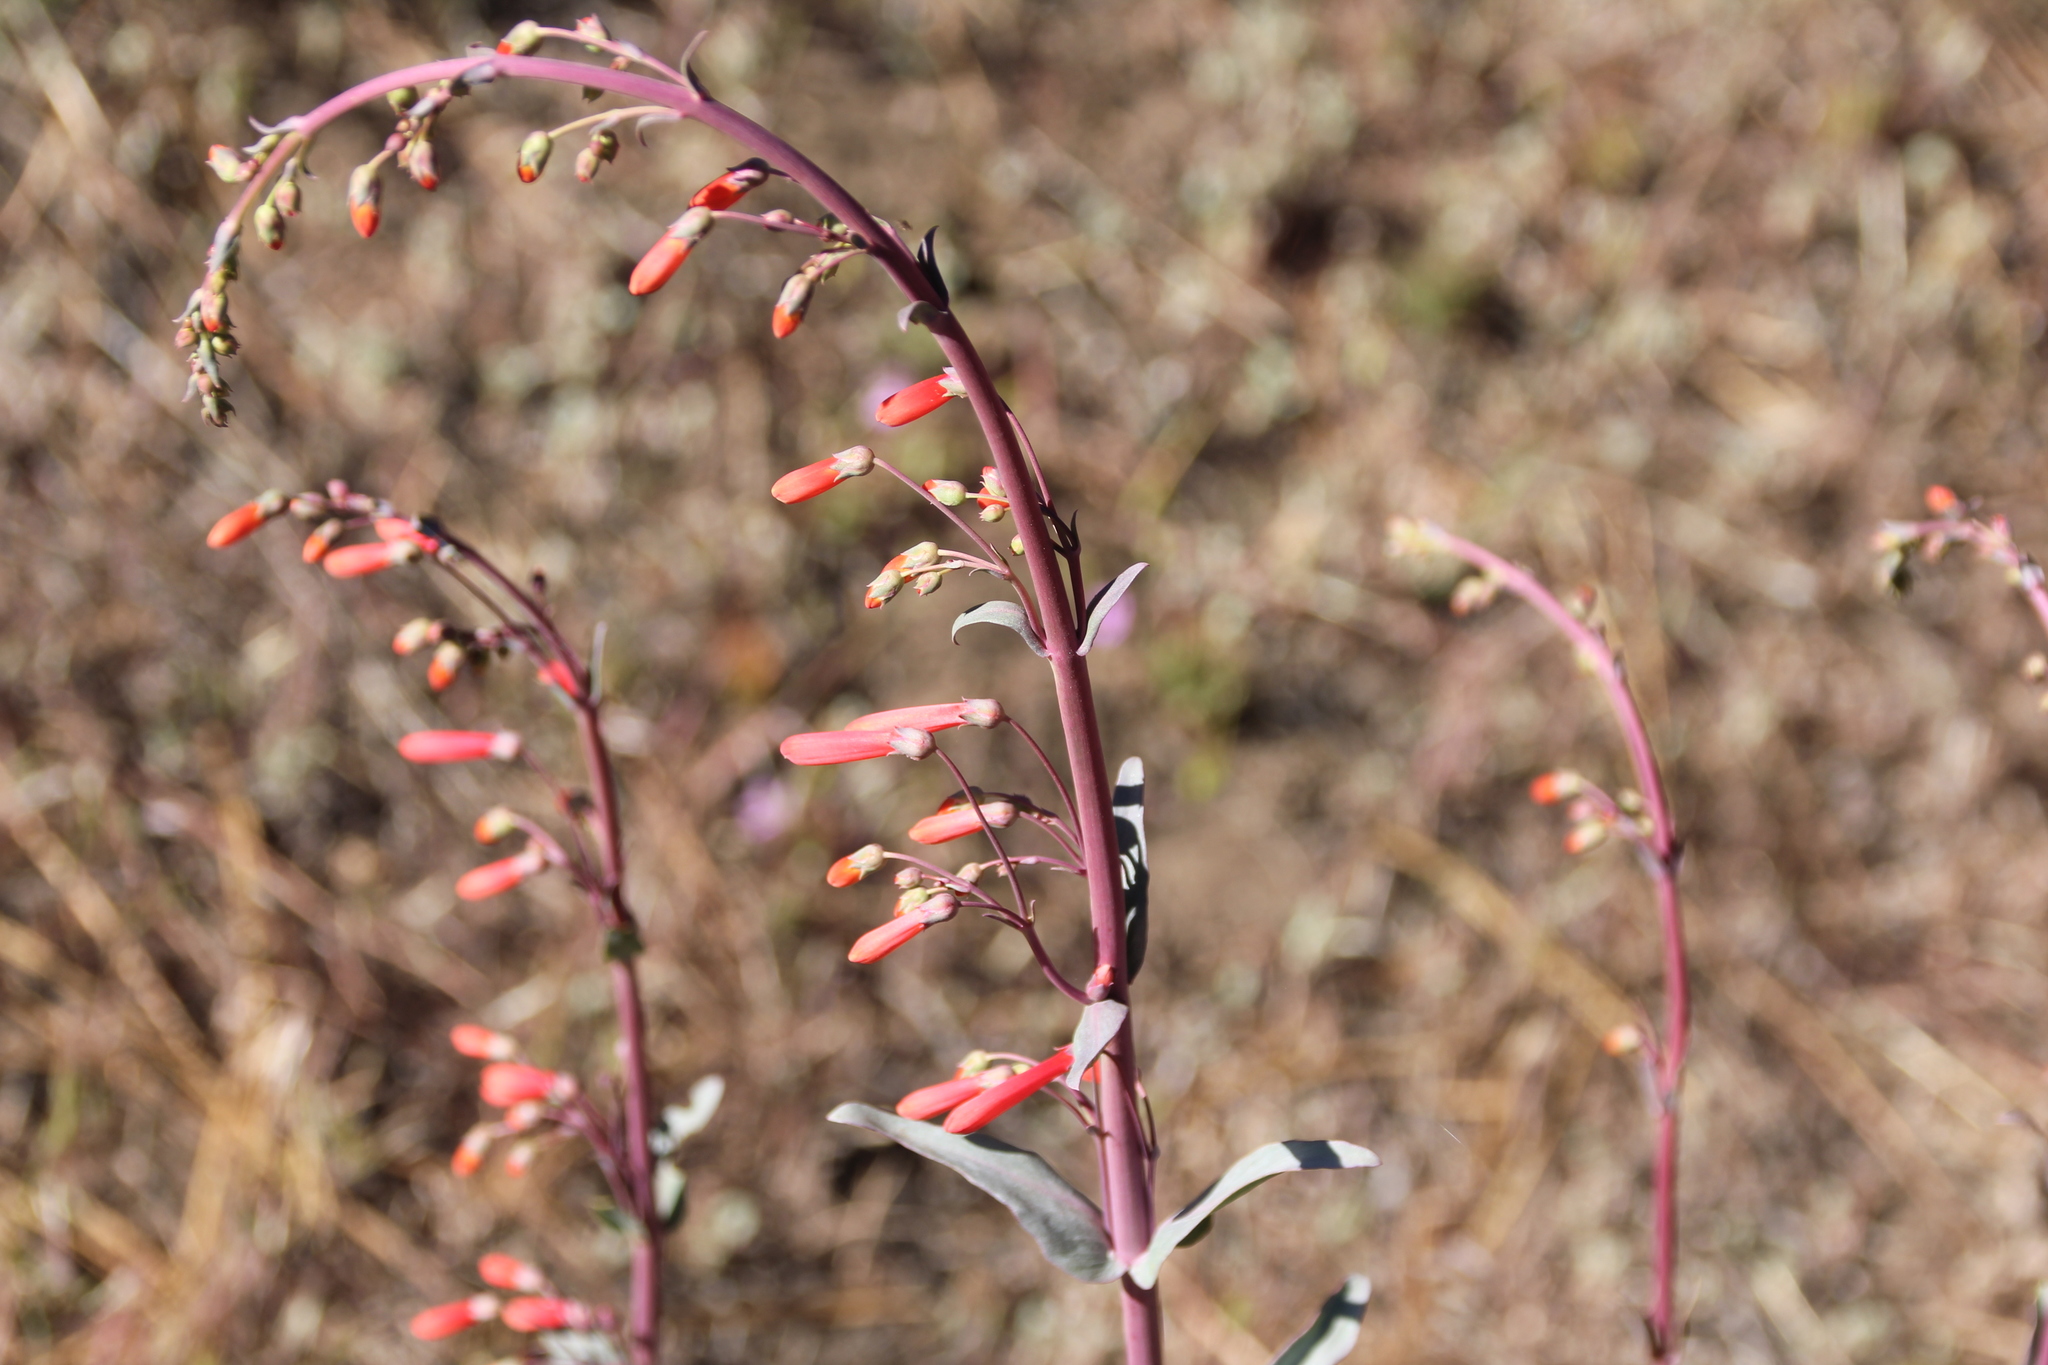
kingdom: Plantae
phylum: Tracheophyta
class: Magnoliopsida
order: Lamiales
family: Plantaginaceae
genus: Penstemon
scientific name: Penstemon centranthifolius
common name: Scarlet bugler
